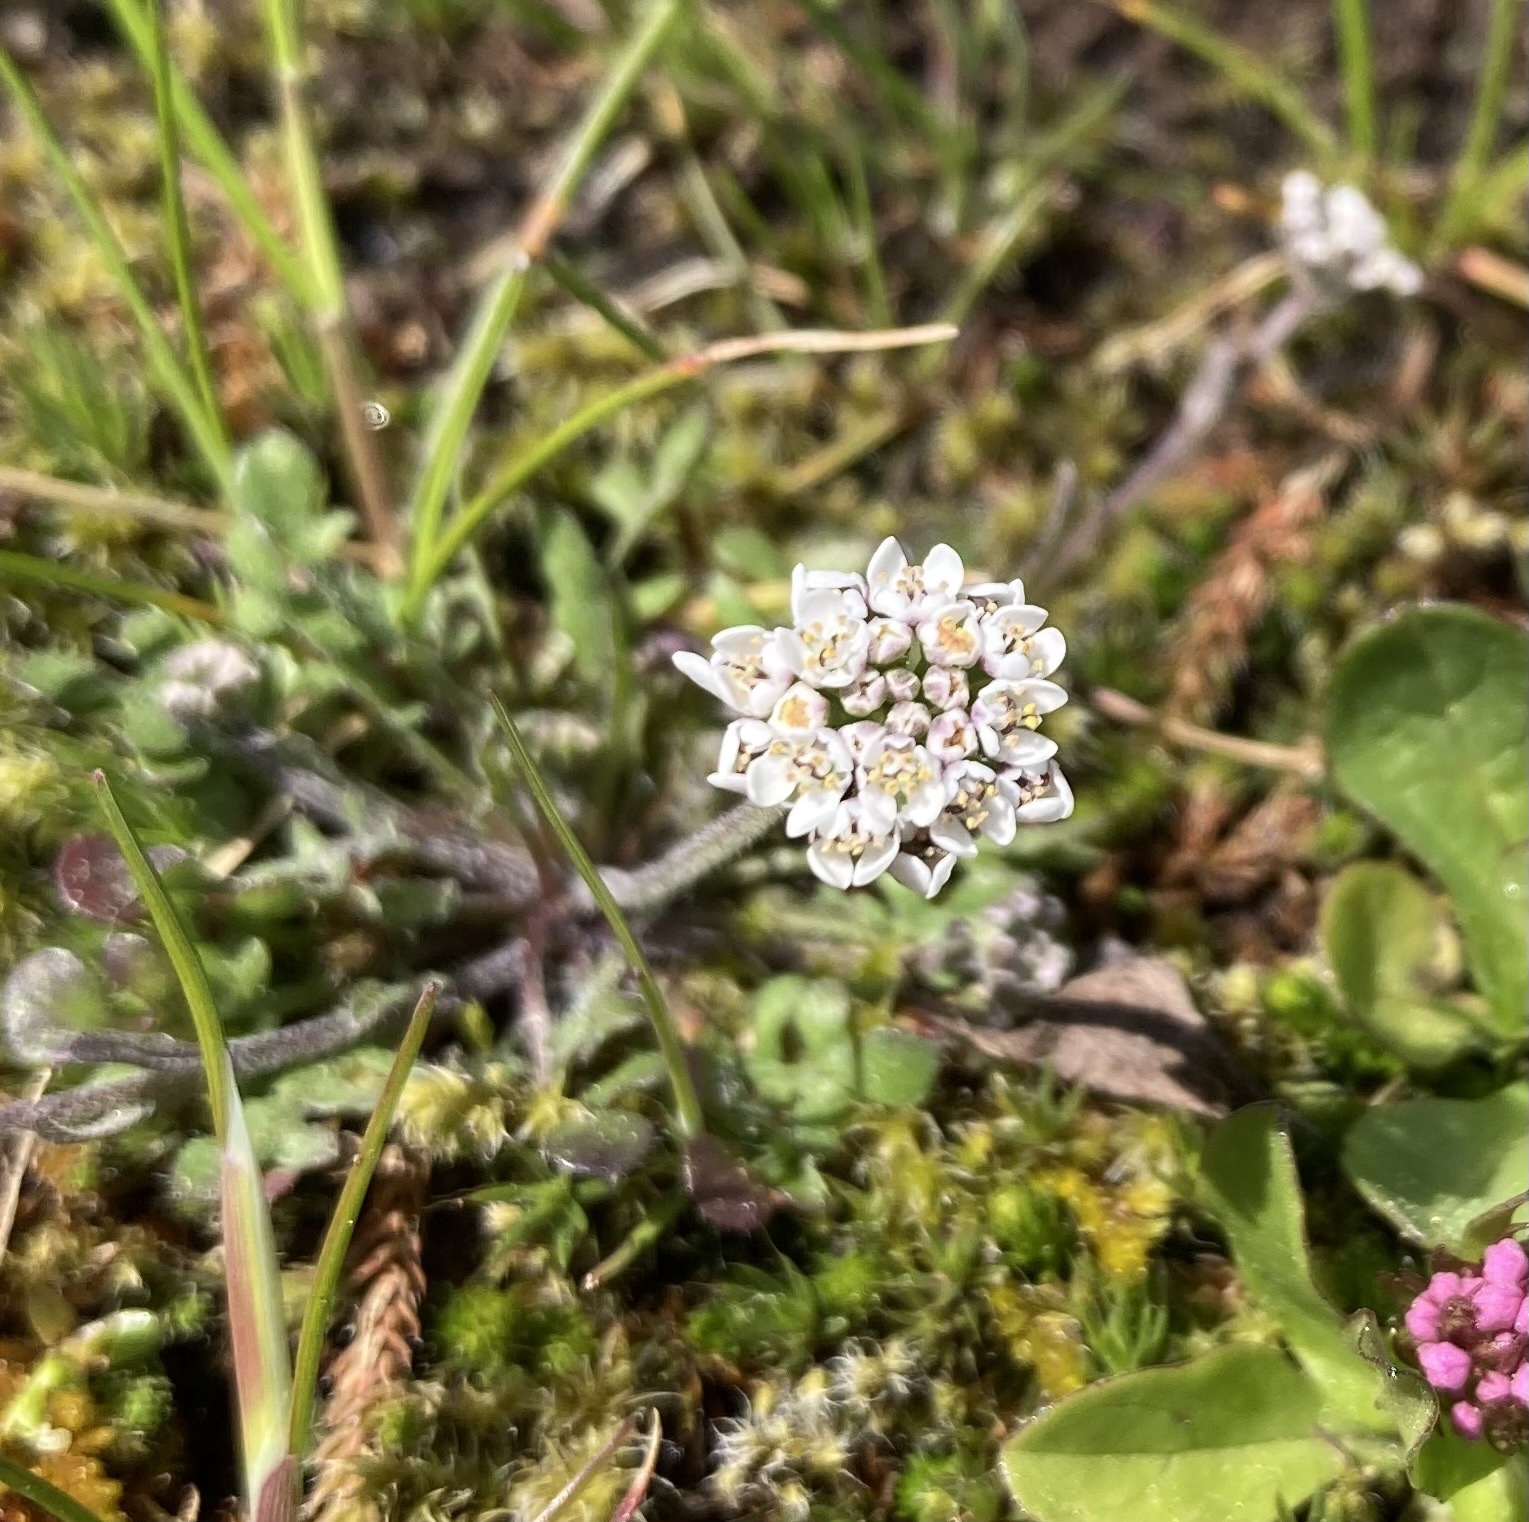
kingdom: Plantae
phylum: Tracheophyta
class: Magnoliopsida
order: Brassicales
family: Brassicaceae
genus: Teesdalia
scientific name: Teesdalia nudicaulis
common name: Shepherd's cress
